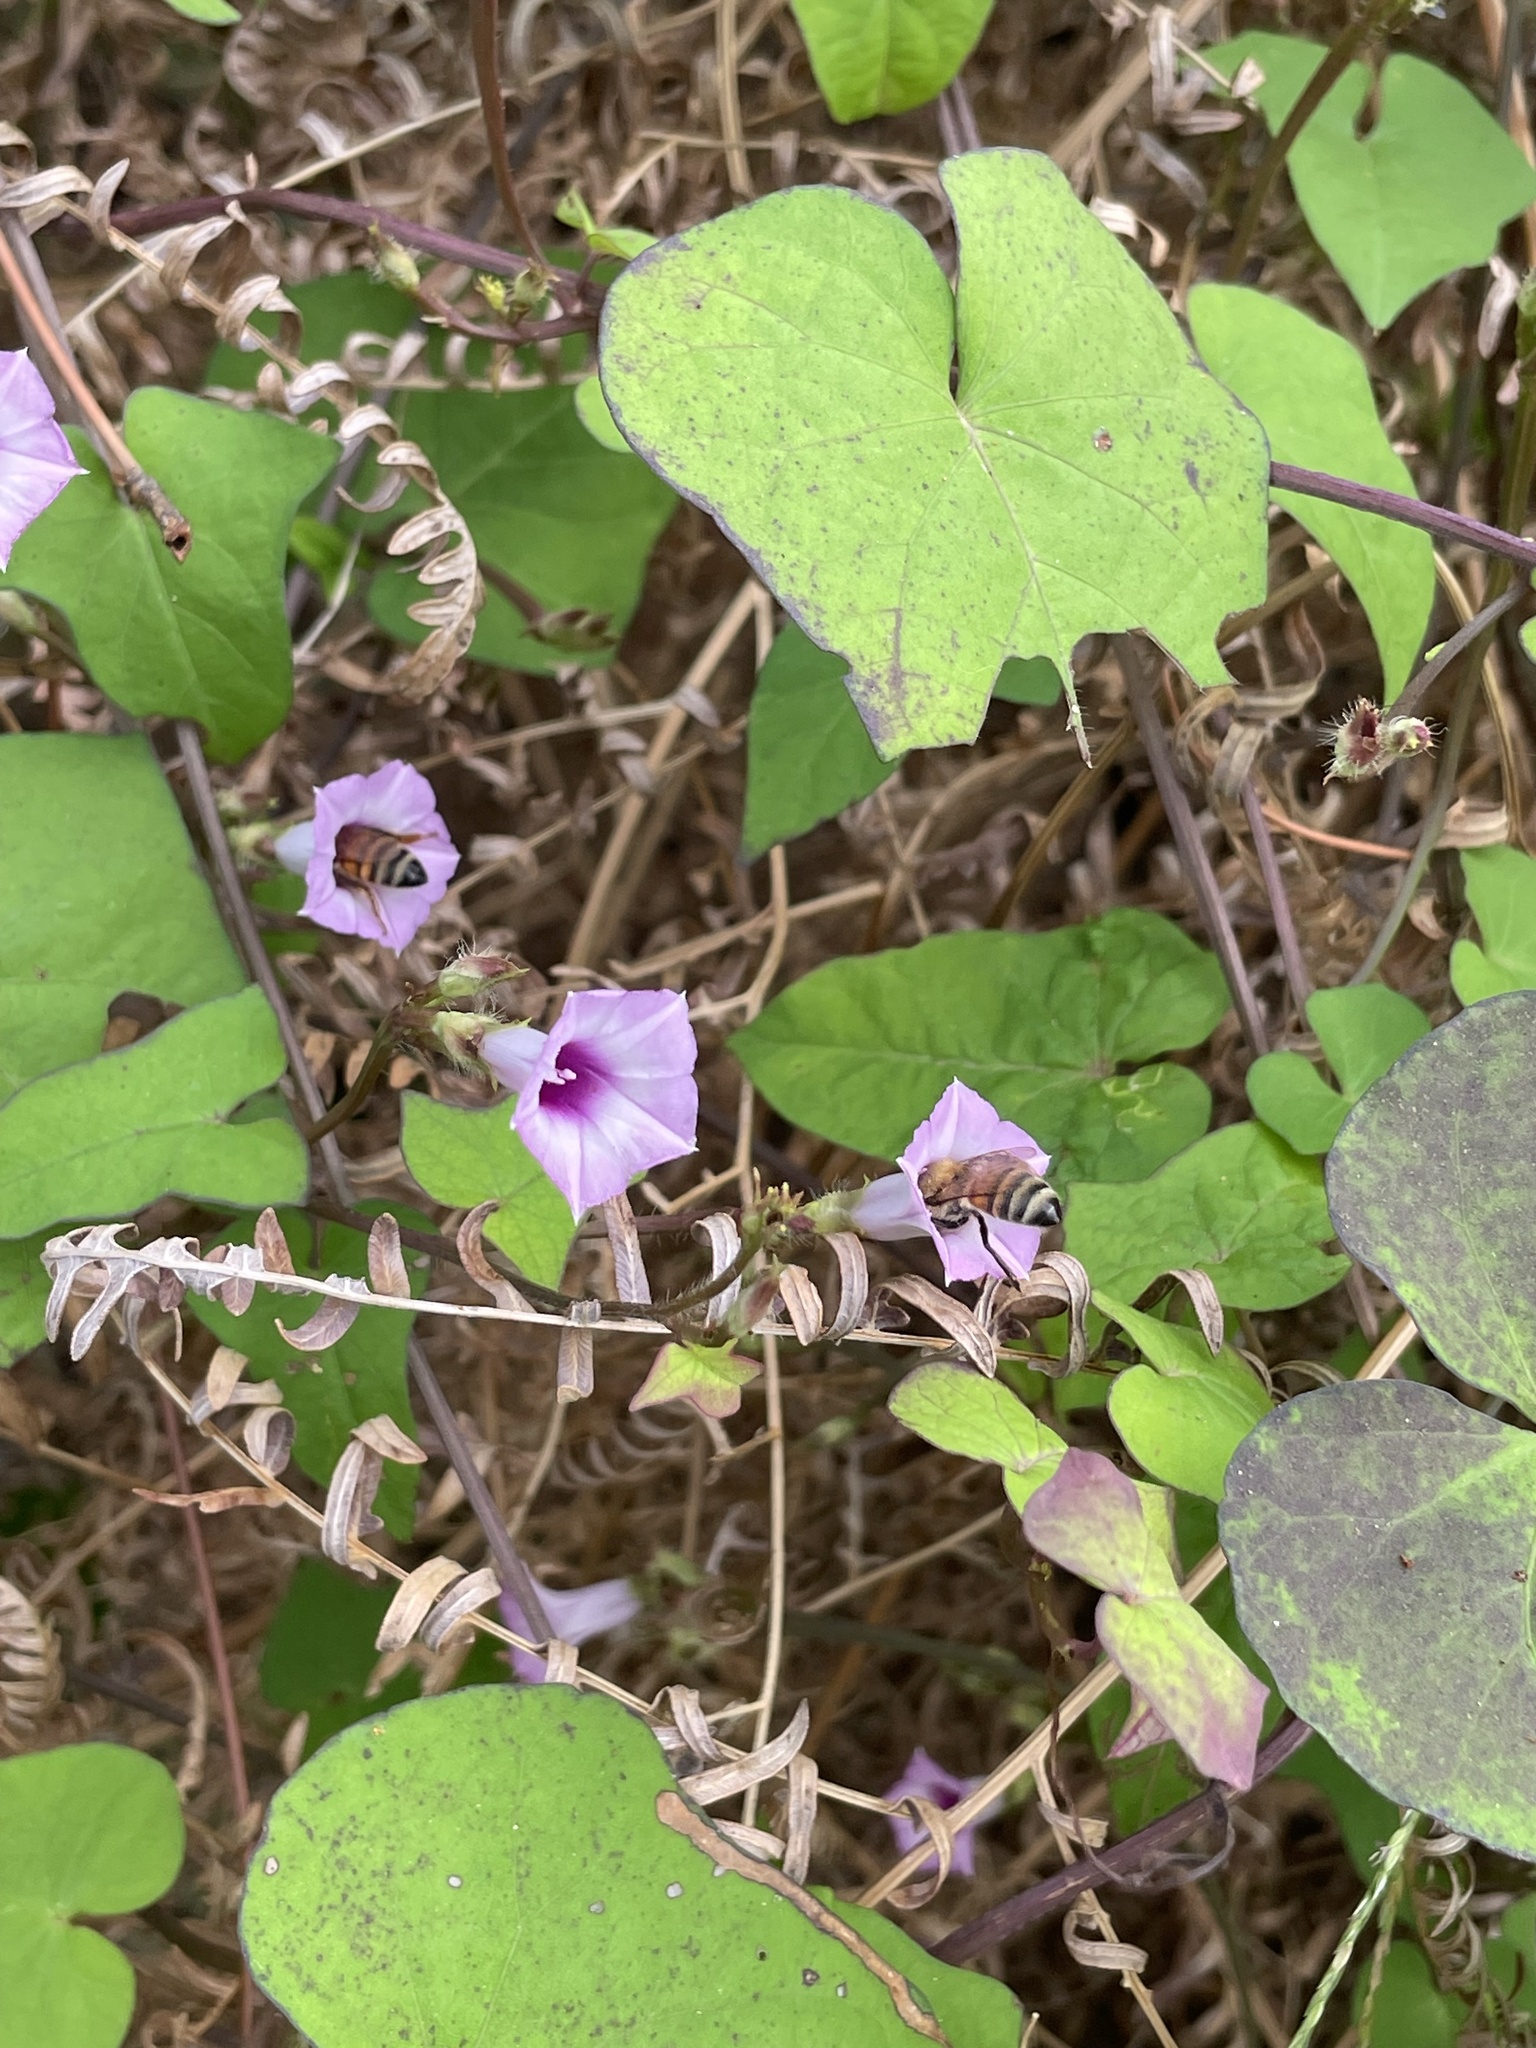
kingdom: Plantae
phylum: Tracheophyta
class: Magnoliopsida
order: Solanales
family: Convolvulaceae
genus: Ipomoea
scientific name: Ipomoea triloba
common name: Little-bell
